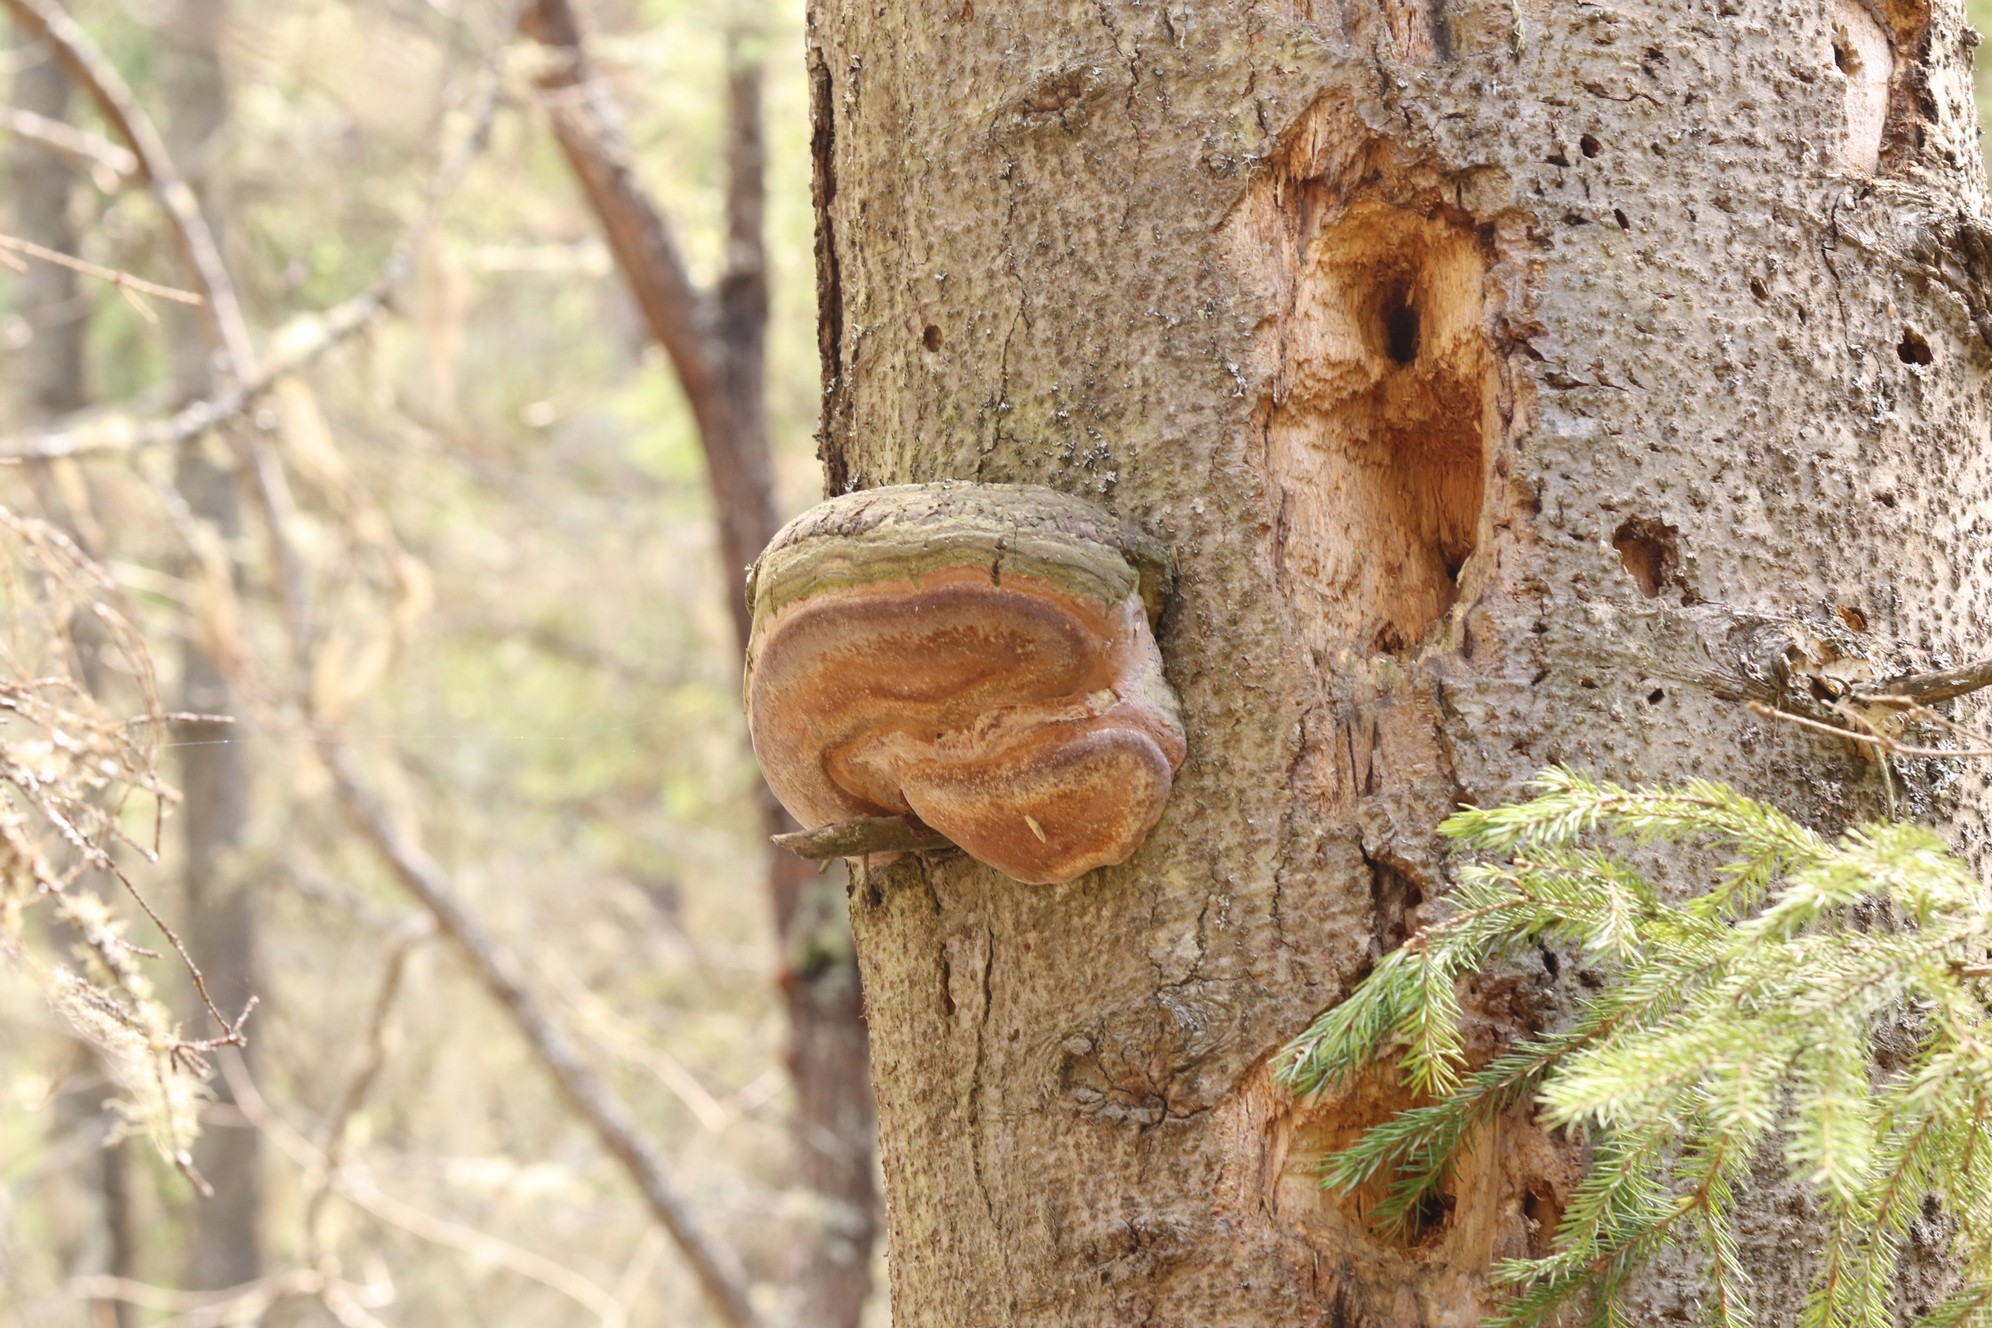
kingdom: Fungi
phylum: Basidiomycota
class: Agaricomycetes
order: Hymenochaetales
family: Hymenochaetaceae
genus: Phellinus
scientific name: Phellinus hartigii
